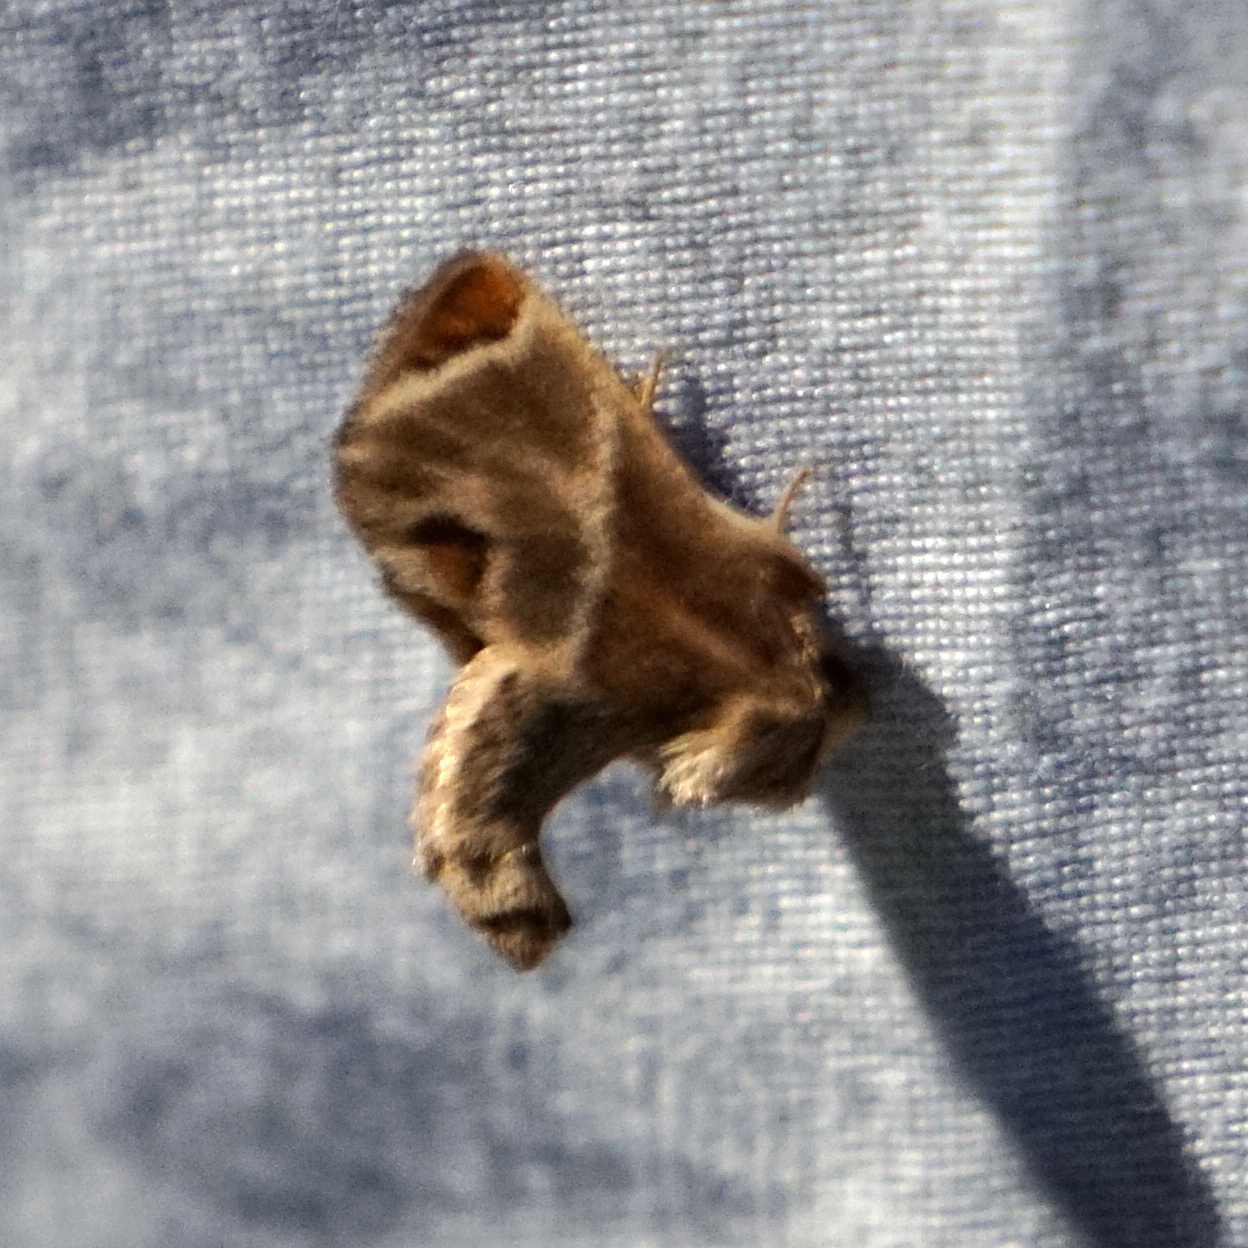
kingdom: Animalia
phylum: Arthropoda
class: Insecta
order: Lepidoptera
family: Limacodidae
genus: Apoda
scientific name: Apoda biguttata
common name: Shagreened slug moth
